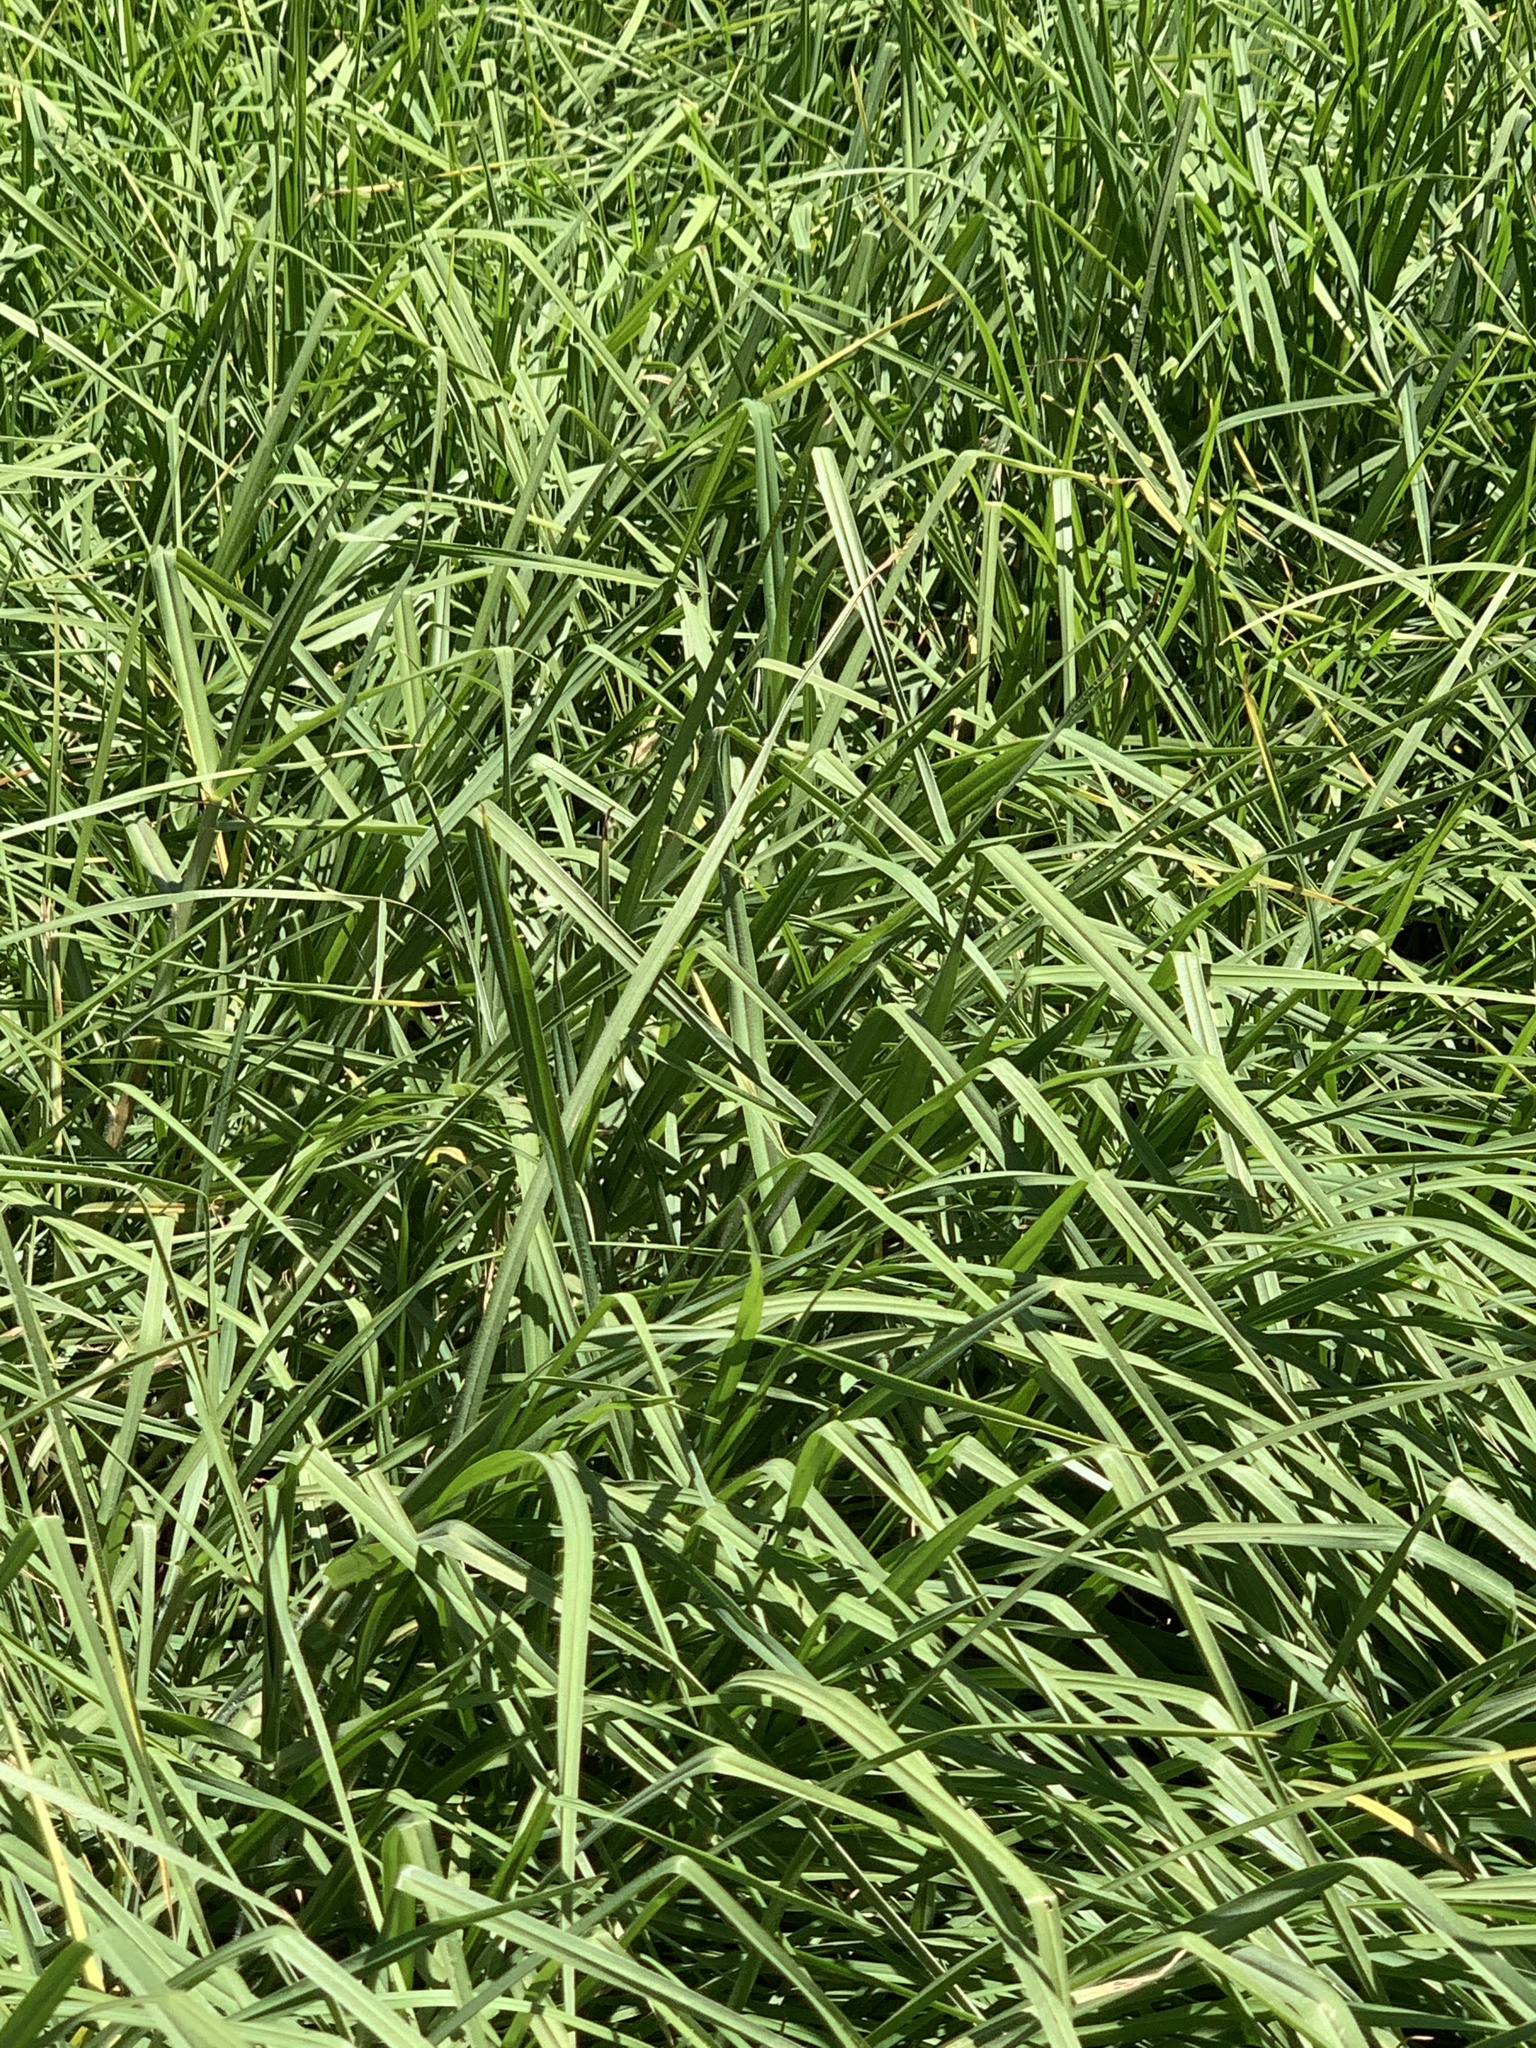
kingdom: Plantae
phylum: Tracheophyta
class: Liliopsida
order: Poales
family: Poaceae
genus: Cenchrus
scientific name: Cenchrus clandestinus
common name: Kikuyugrass
